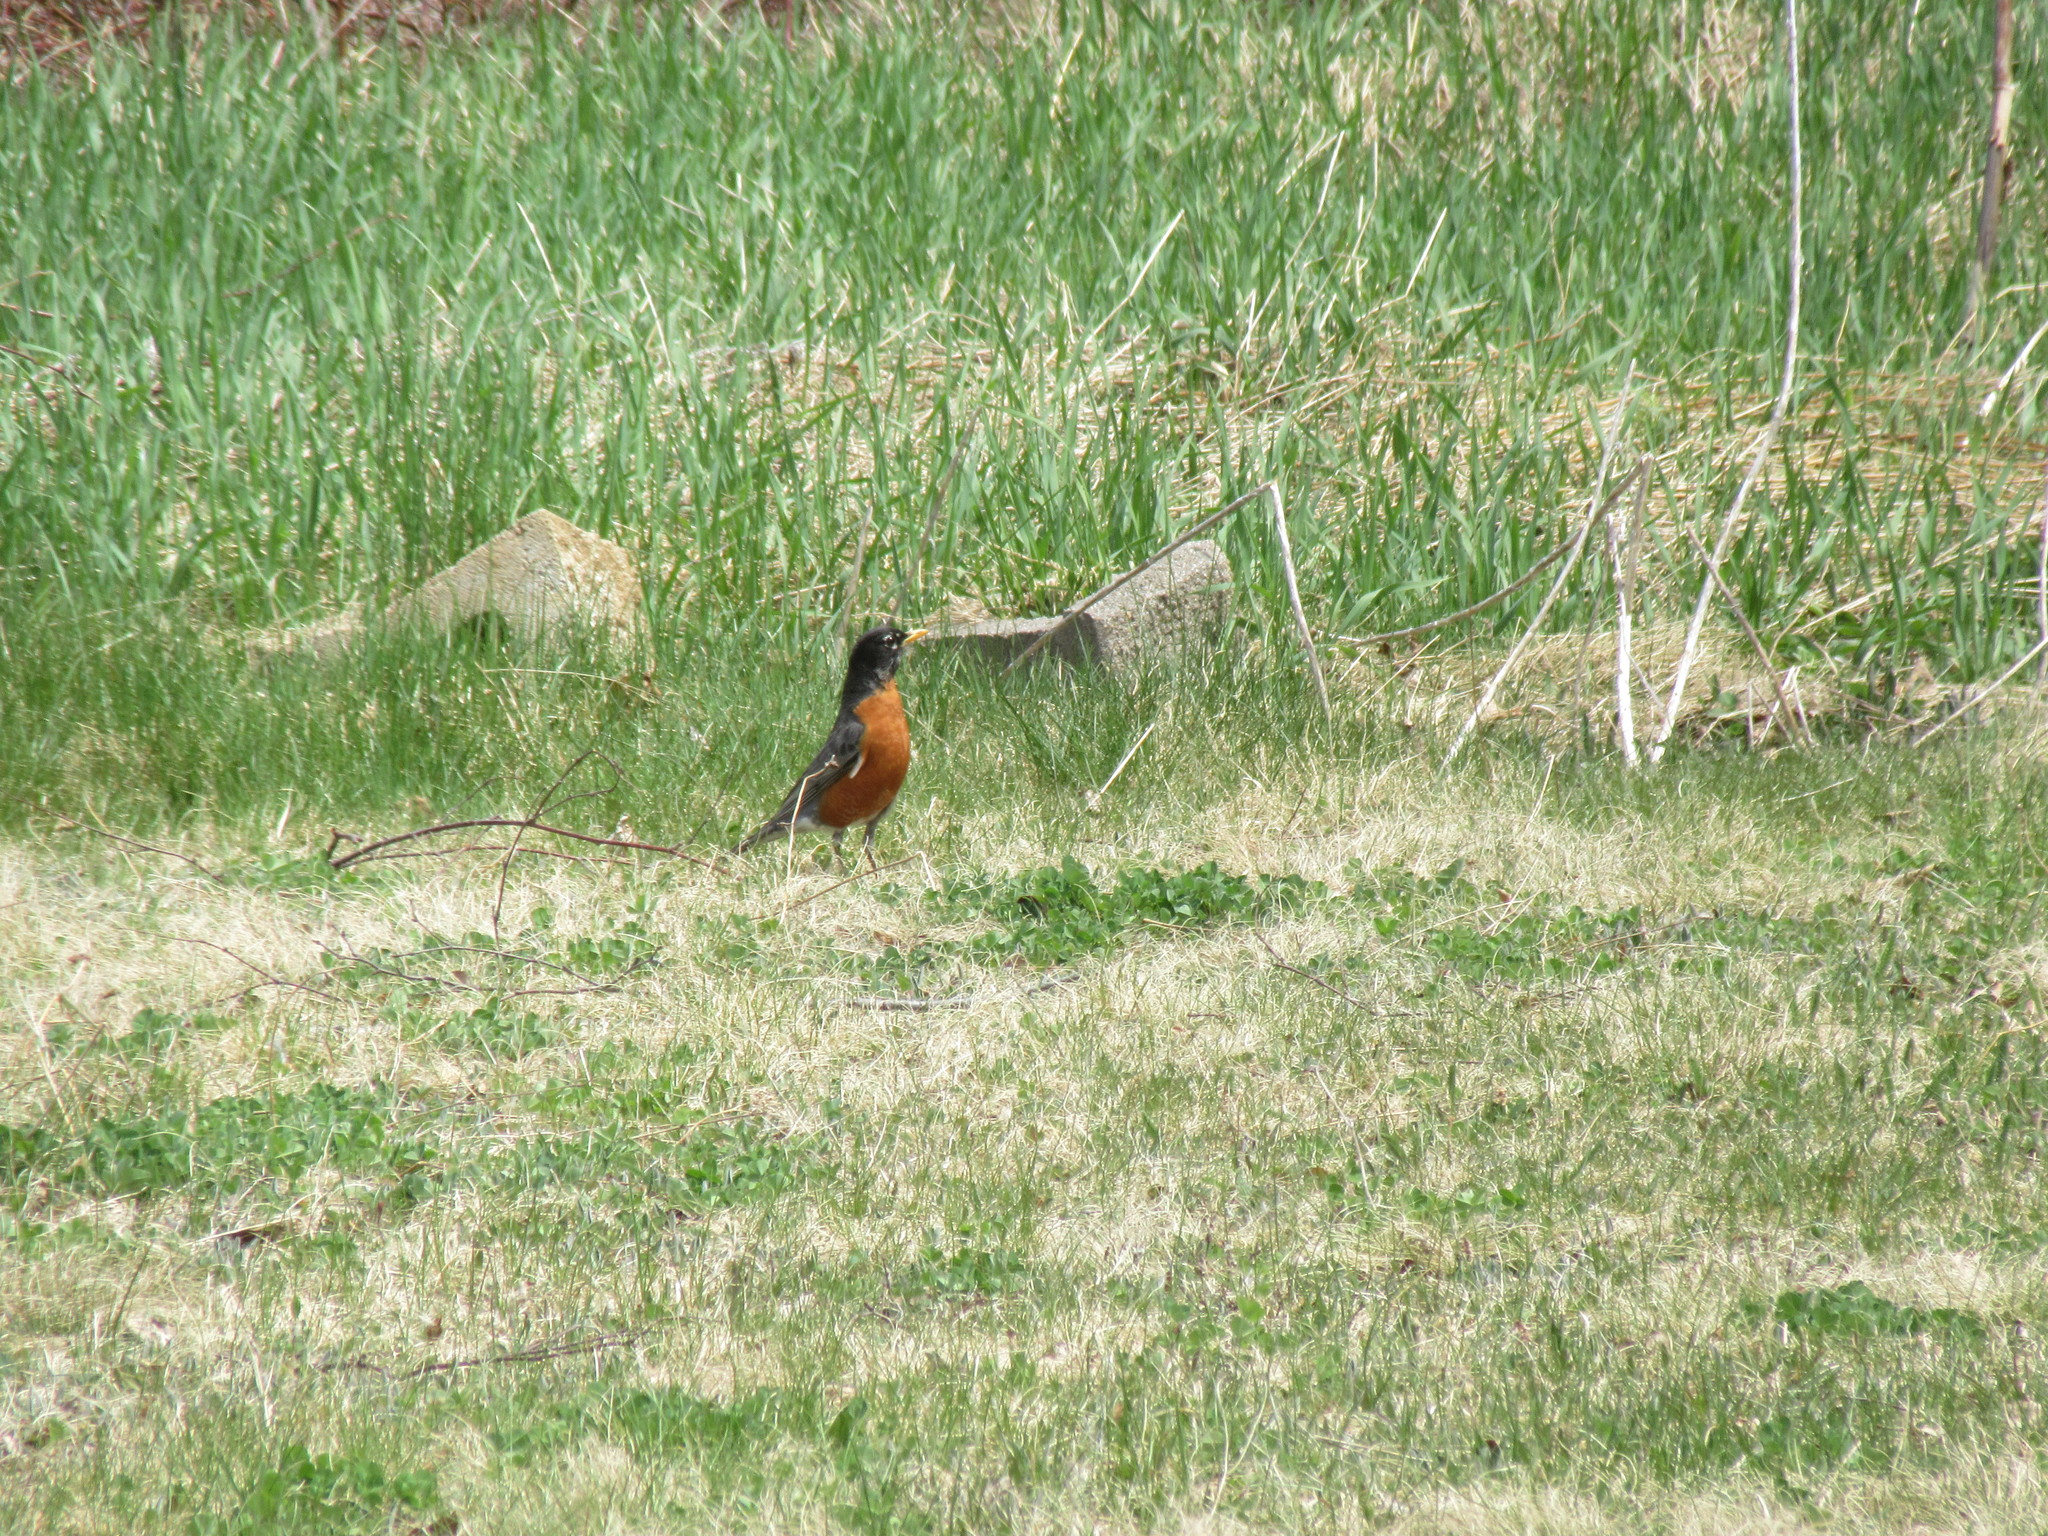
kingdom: Animalia
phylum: Chordata
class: Aves
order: Passeriformes
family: Turdidae
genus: Turdus
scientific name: Turdus migratorius
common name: American robin
